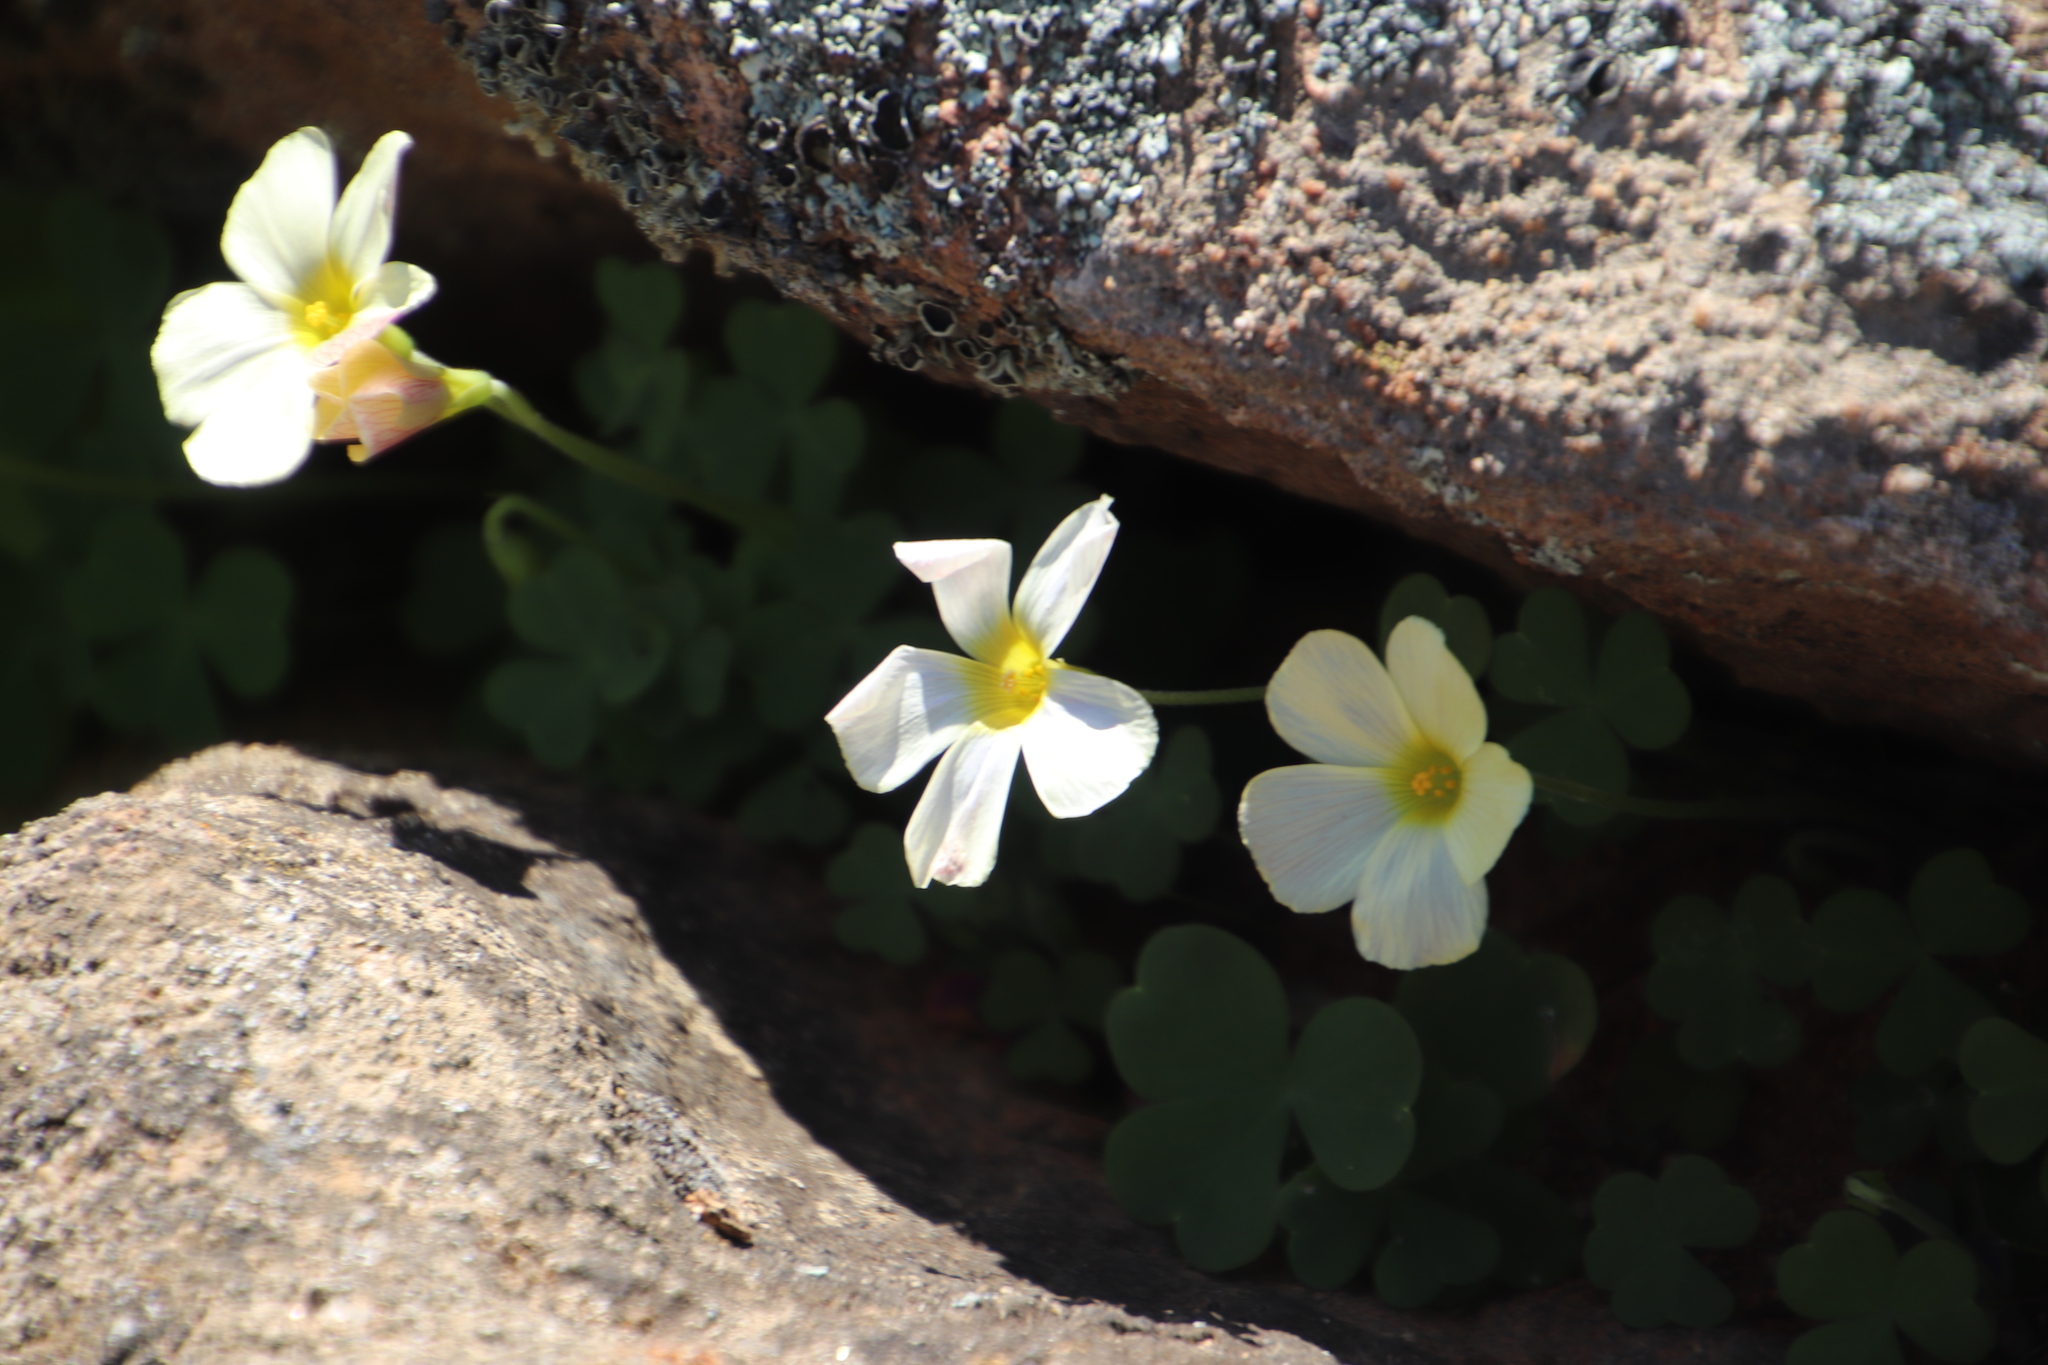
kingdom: Plantae
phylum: Tracheophyta
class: Magnoliopsida
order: Oxalidales
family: Oxalidaceae
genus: Oxalis
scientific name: Oxalis obtusa
